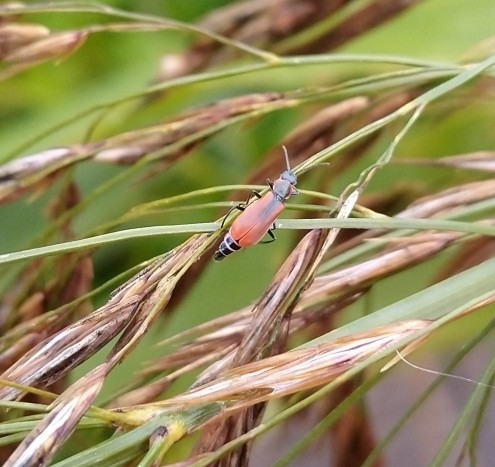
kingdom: Animalia
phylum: Arthropoda
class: Insecta
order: Coleoptera
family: Melyridae
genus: Anthocomus
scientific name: Anthocomus rufus
